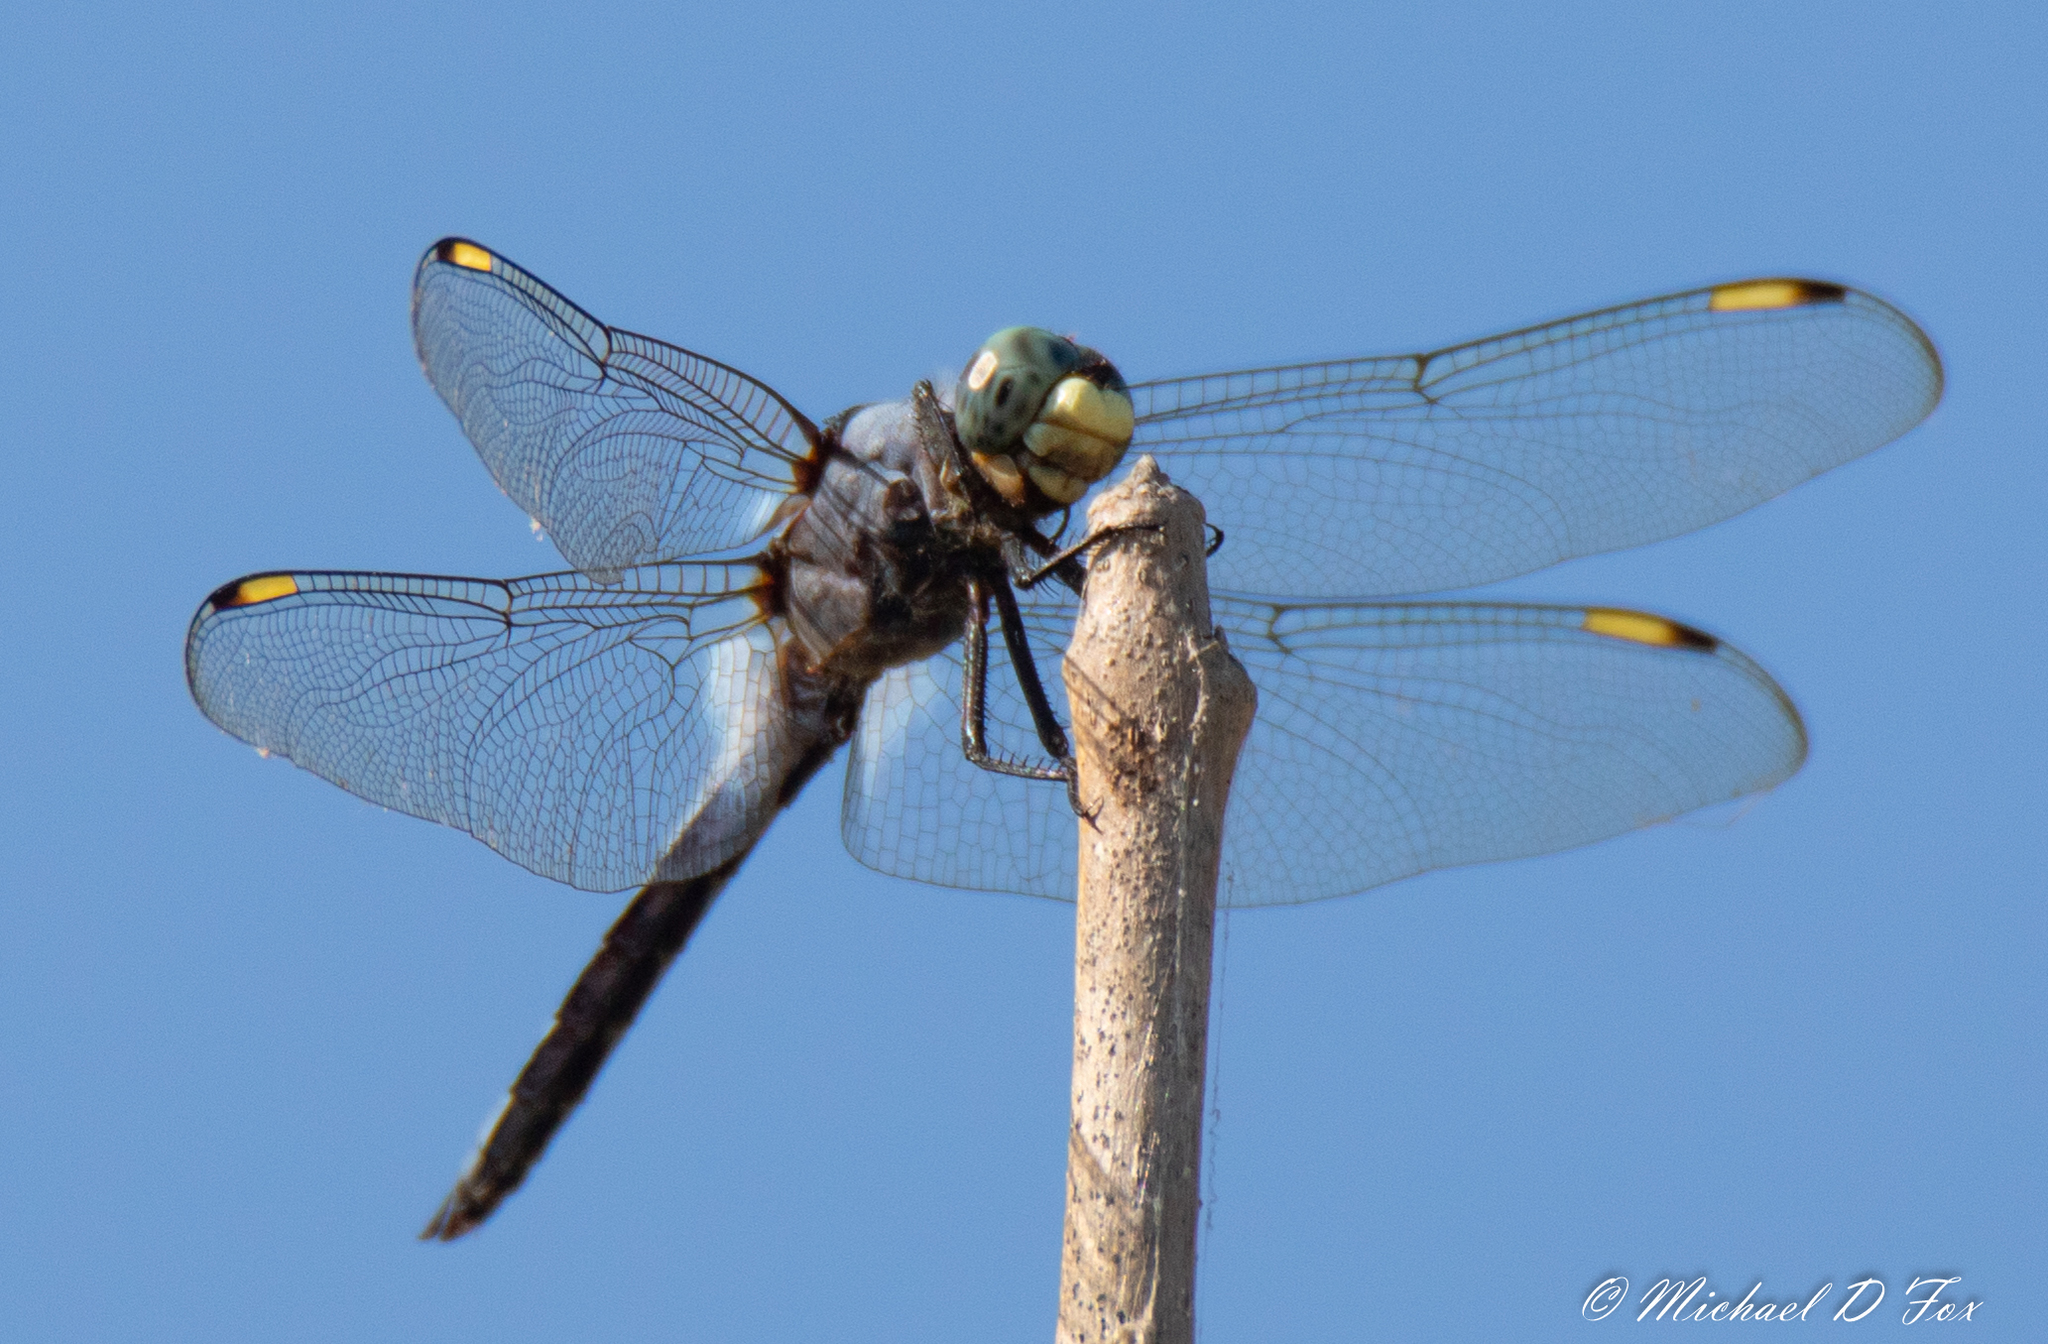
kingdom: Animalia
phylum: Arthropoda
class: Insecta
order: Odonata
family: Libellulidae
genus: Libellula
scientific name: Libellula comanche
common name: Comanche skimmer
